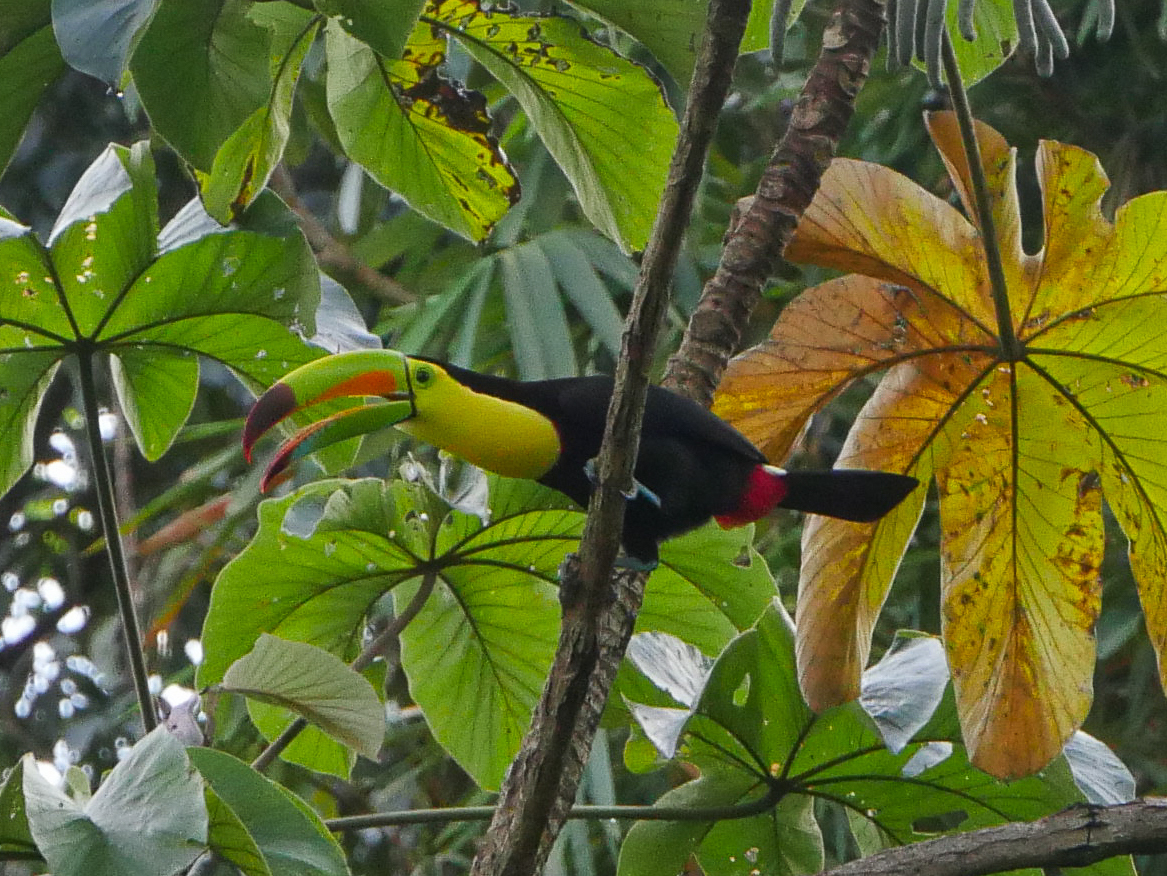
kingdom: Animalia
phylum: Chordata
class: Aves
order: Piciformes
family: Ramphastidae
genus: Ramphastos
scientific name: Ramphastos sulfuratus
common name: Keel-billed toucan
